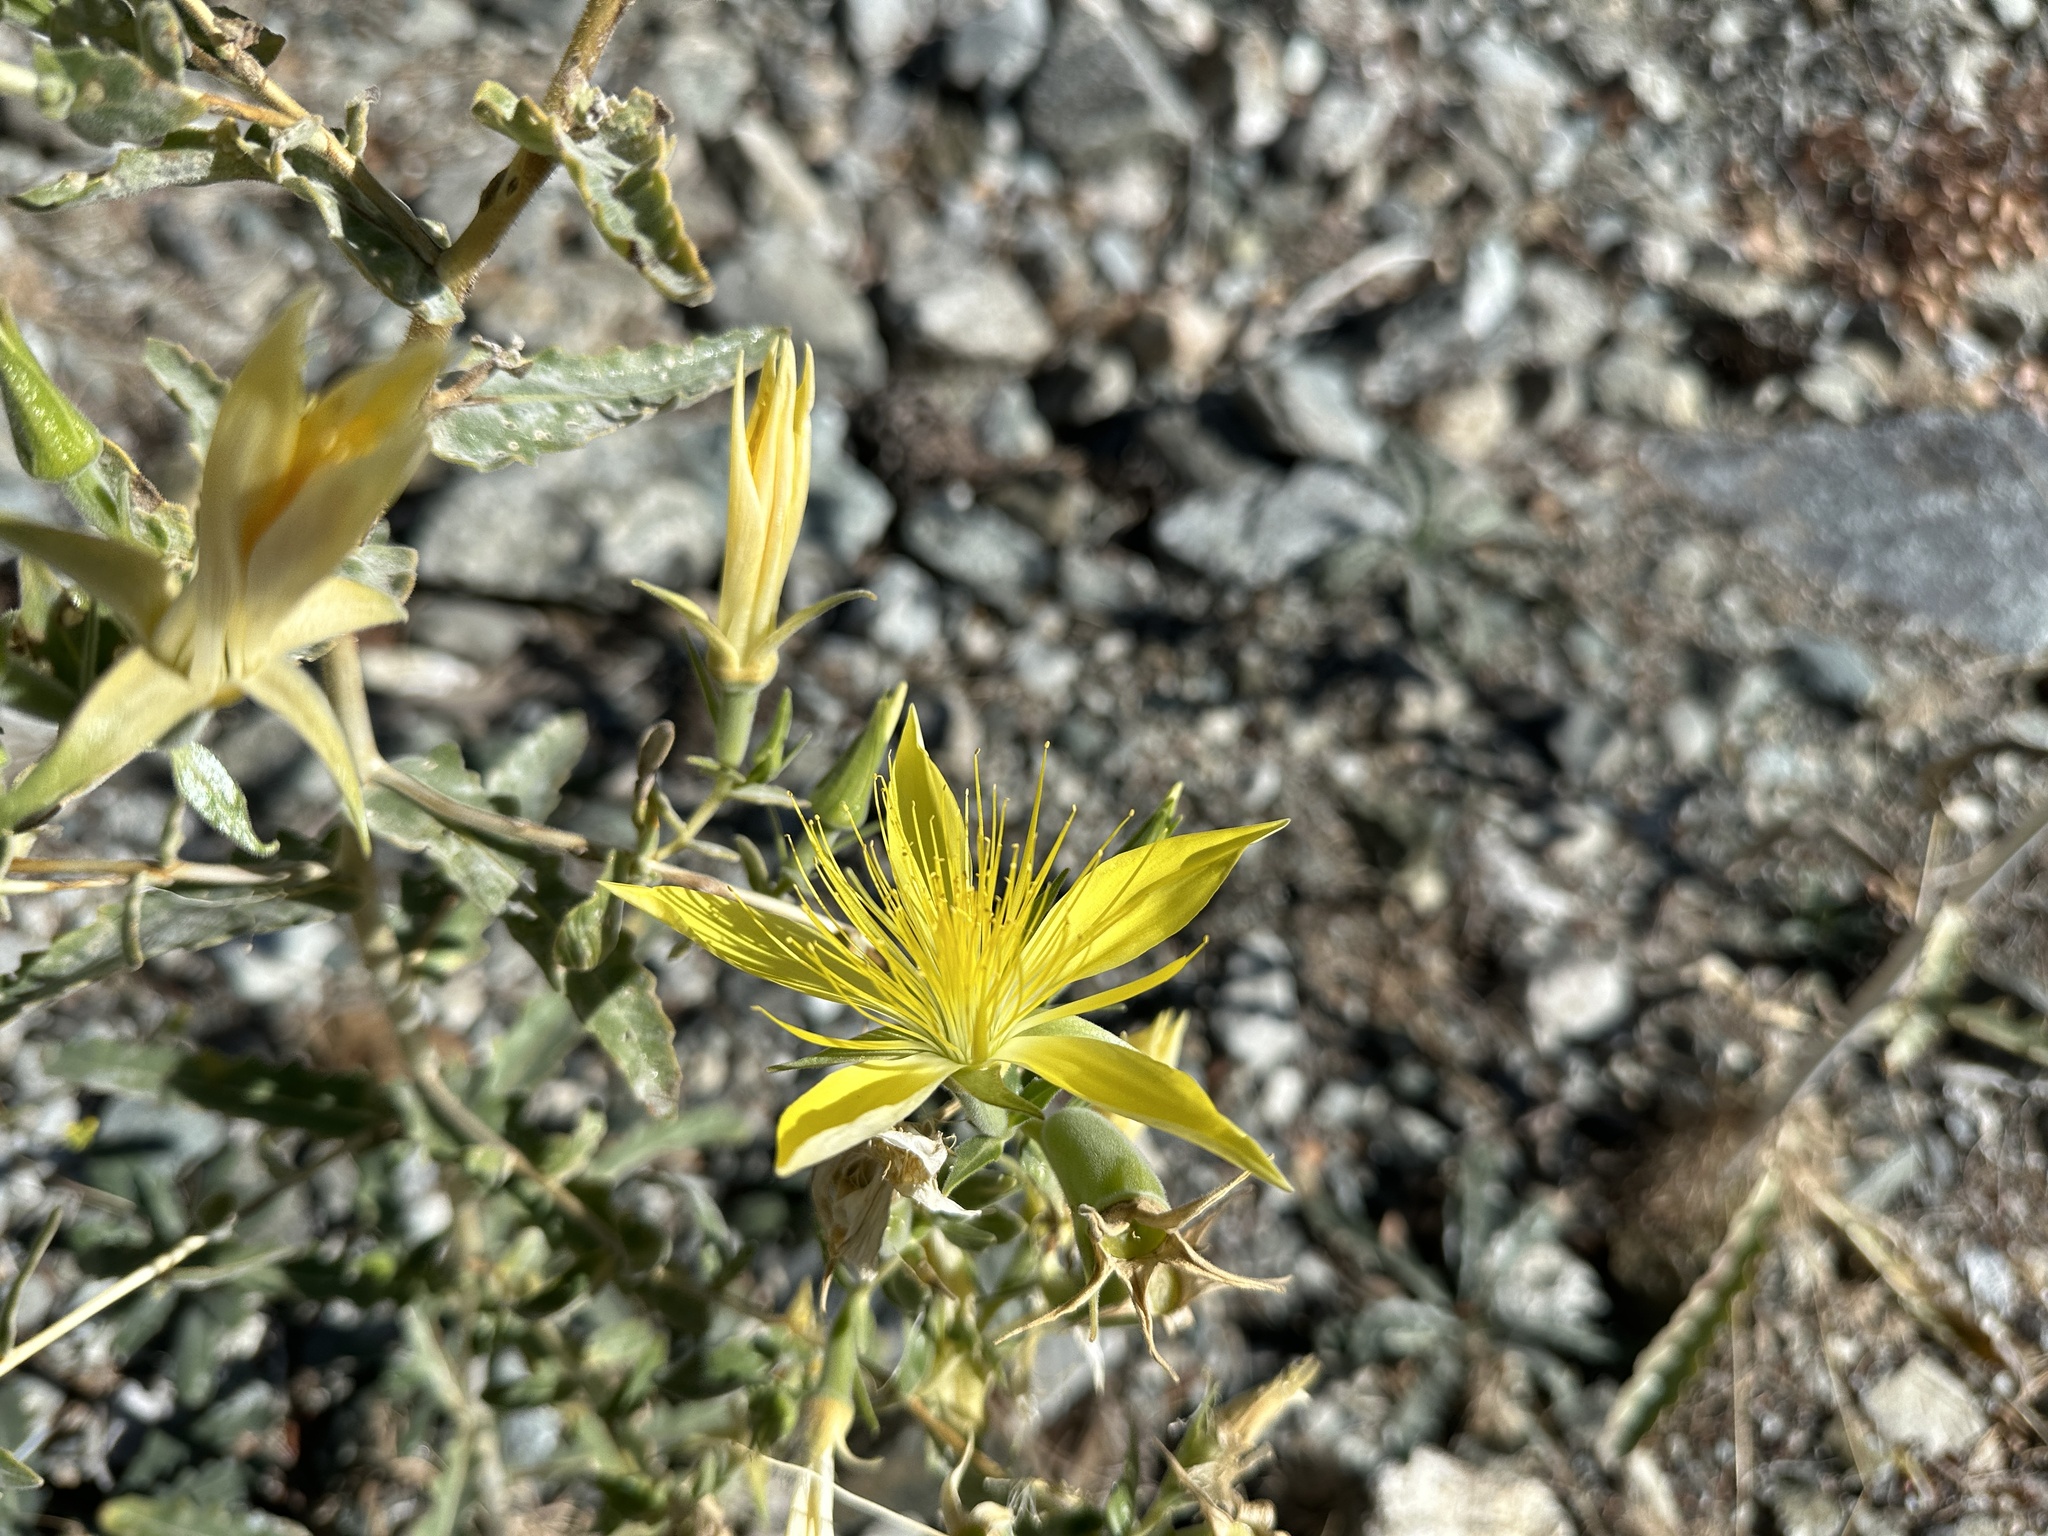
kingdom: Plantae
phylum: Tracheophyta
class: Magnoliopsida
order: Cornales
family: Loasaceae
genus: Mentzelia
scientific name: Mentzelia laevicaulis
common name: Smooth-stem blazingstar
